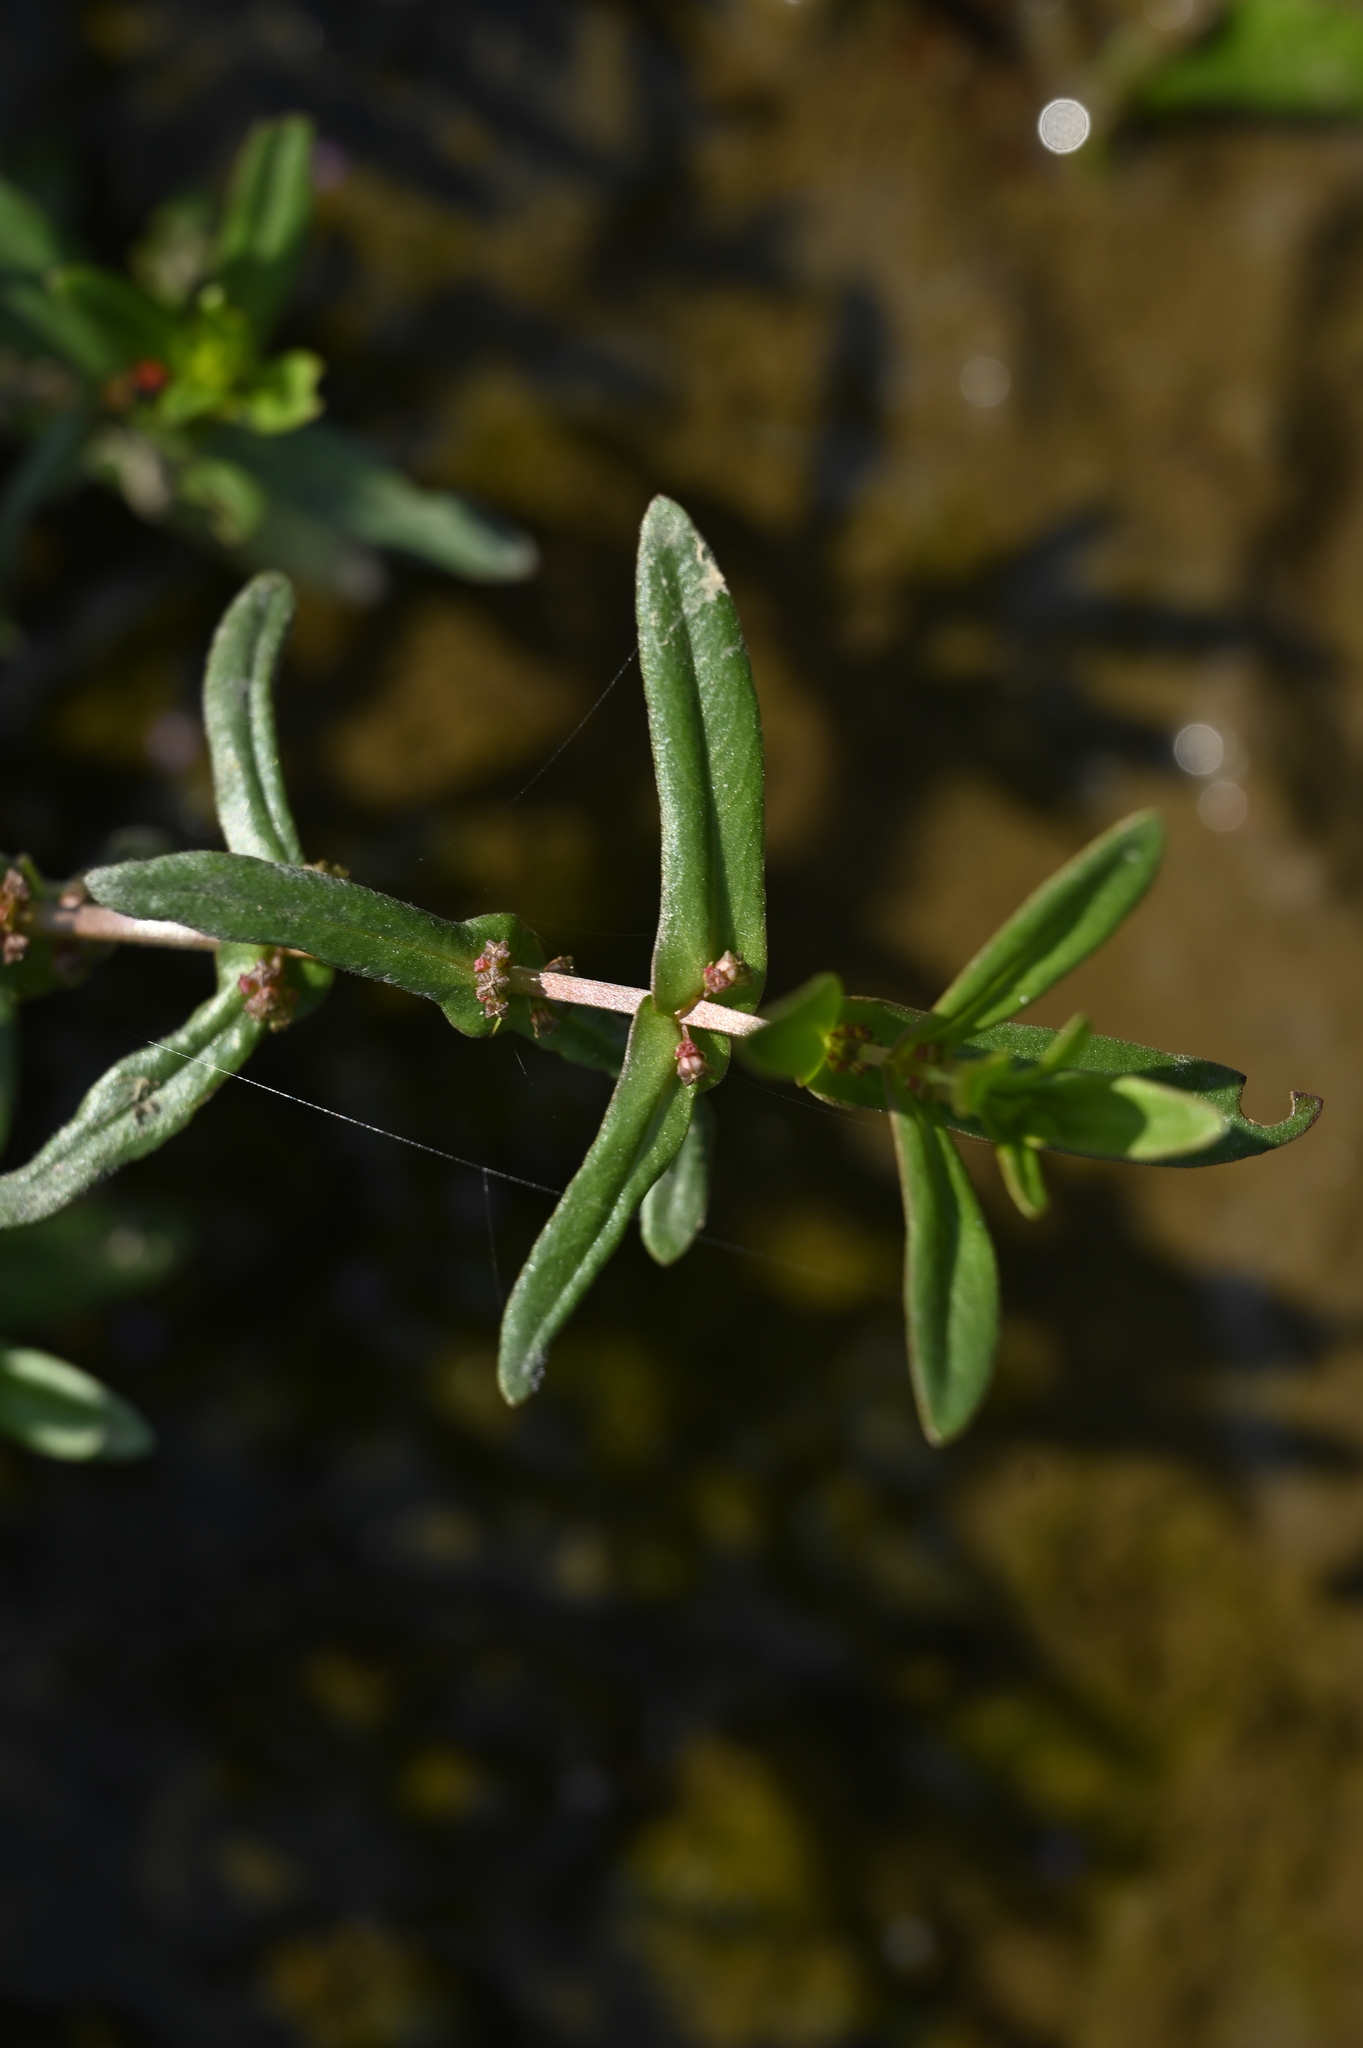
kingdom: Plantae
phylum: Tracheophyta
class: Magnoliopsida
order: Myrtales
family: Lythraceae
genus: Ammannia
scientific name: Ammannia auriculata
